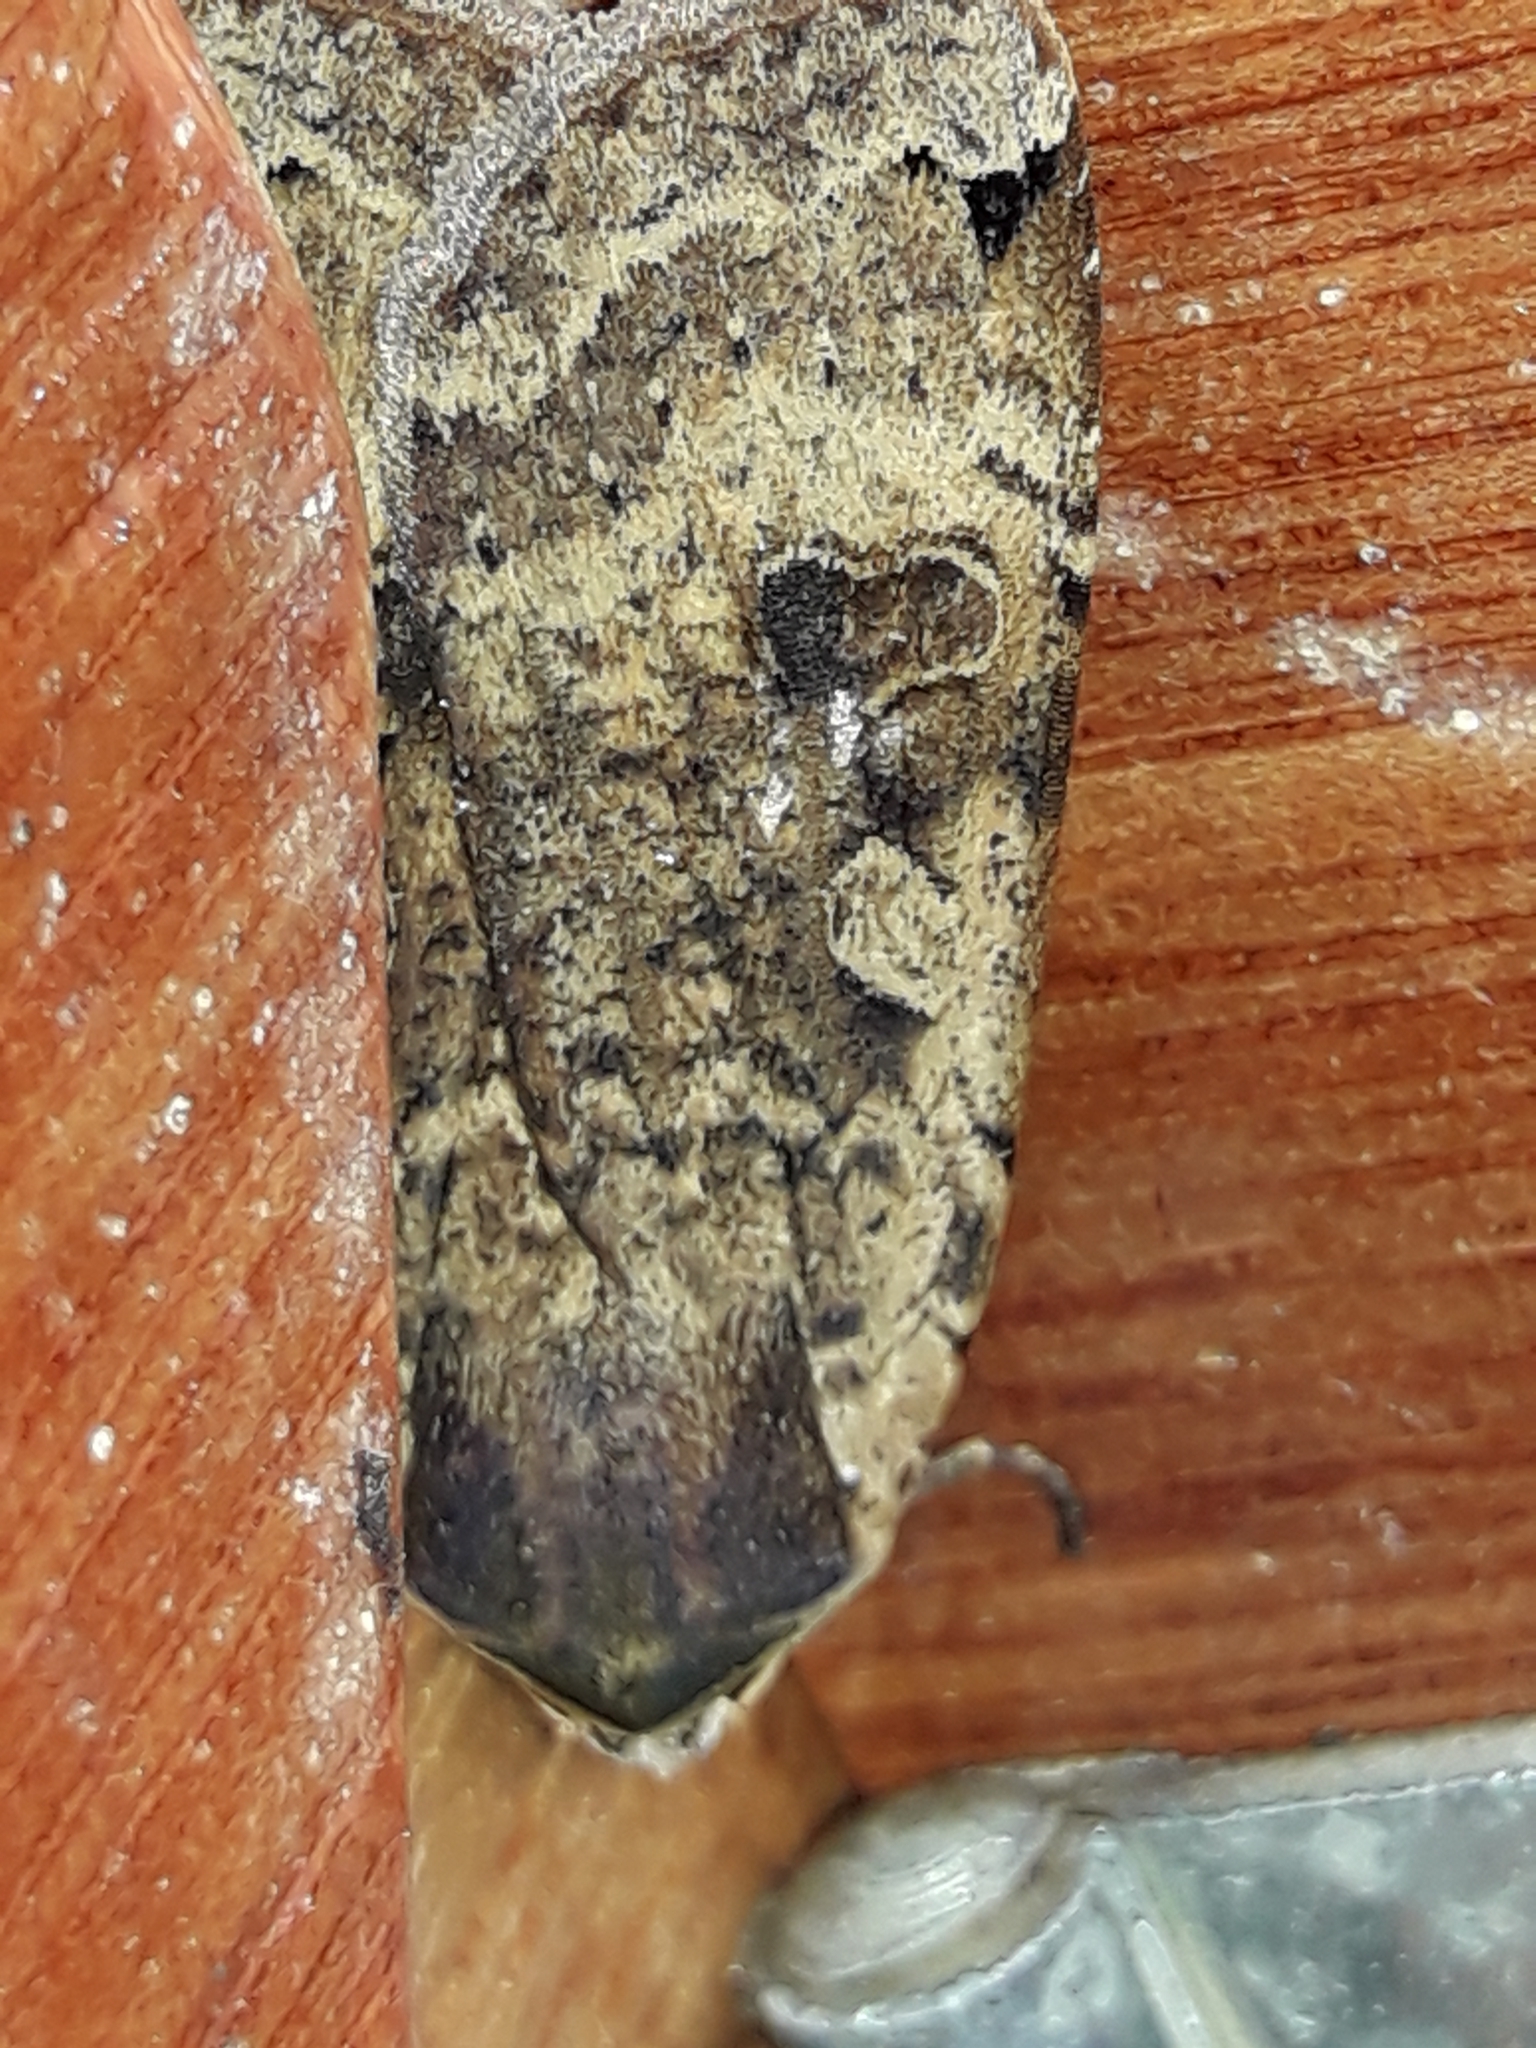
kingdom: Animalia
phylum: Arthropoda
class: Insecta
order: Lepidoptera
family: Noctuidae
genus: Noctua
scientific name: Noctua pronuba
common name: Large yellow underwing
